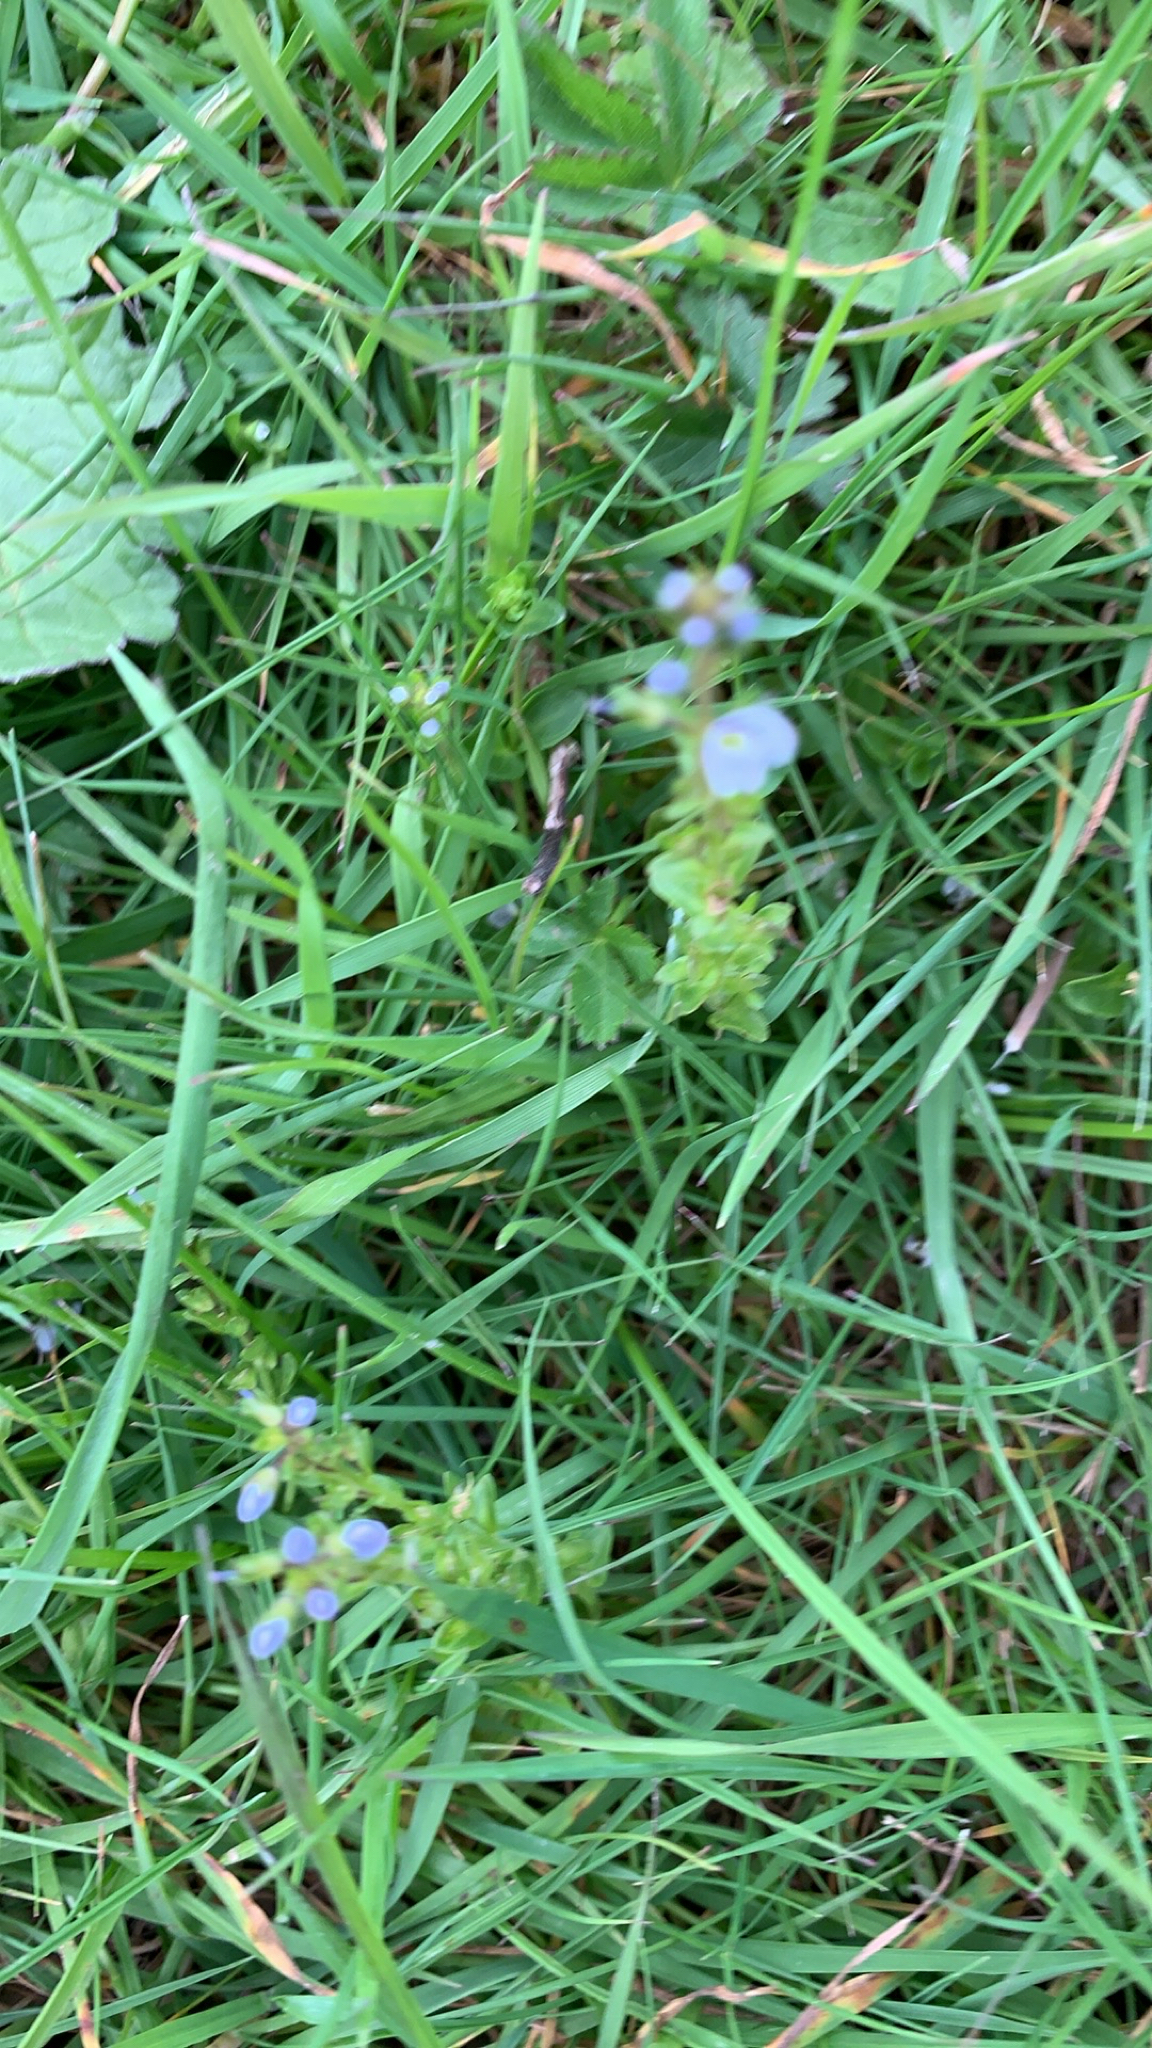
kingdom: Plantae
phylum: Tracheophyta
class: Magnoliopsida
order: Lamiales
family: Plantaginaceae
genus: Veronica
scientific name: Veronica serpyllifolia
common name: Thyme-leaved speedwell
